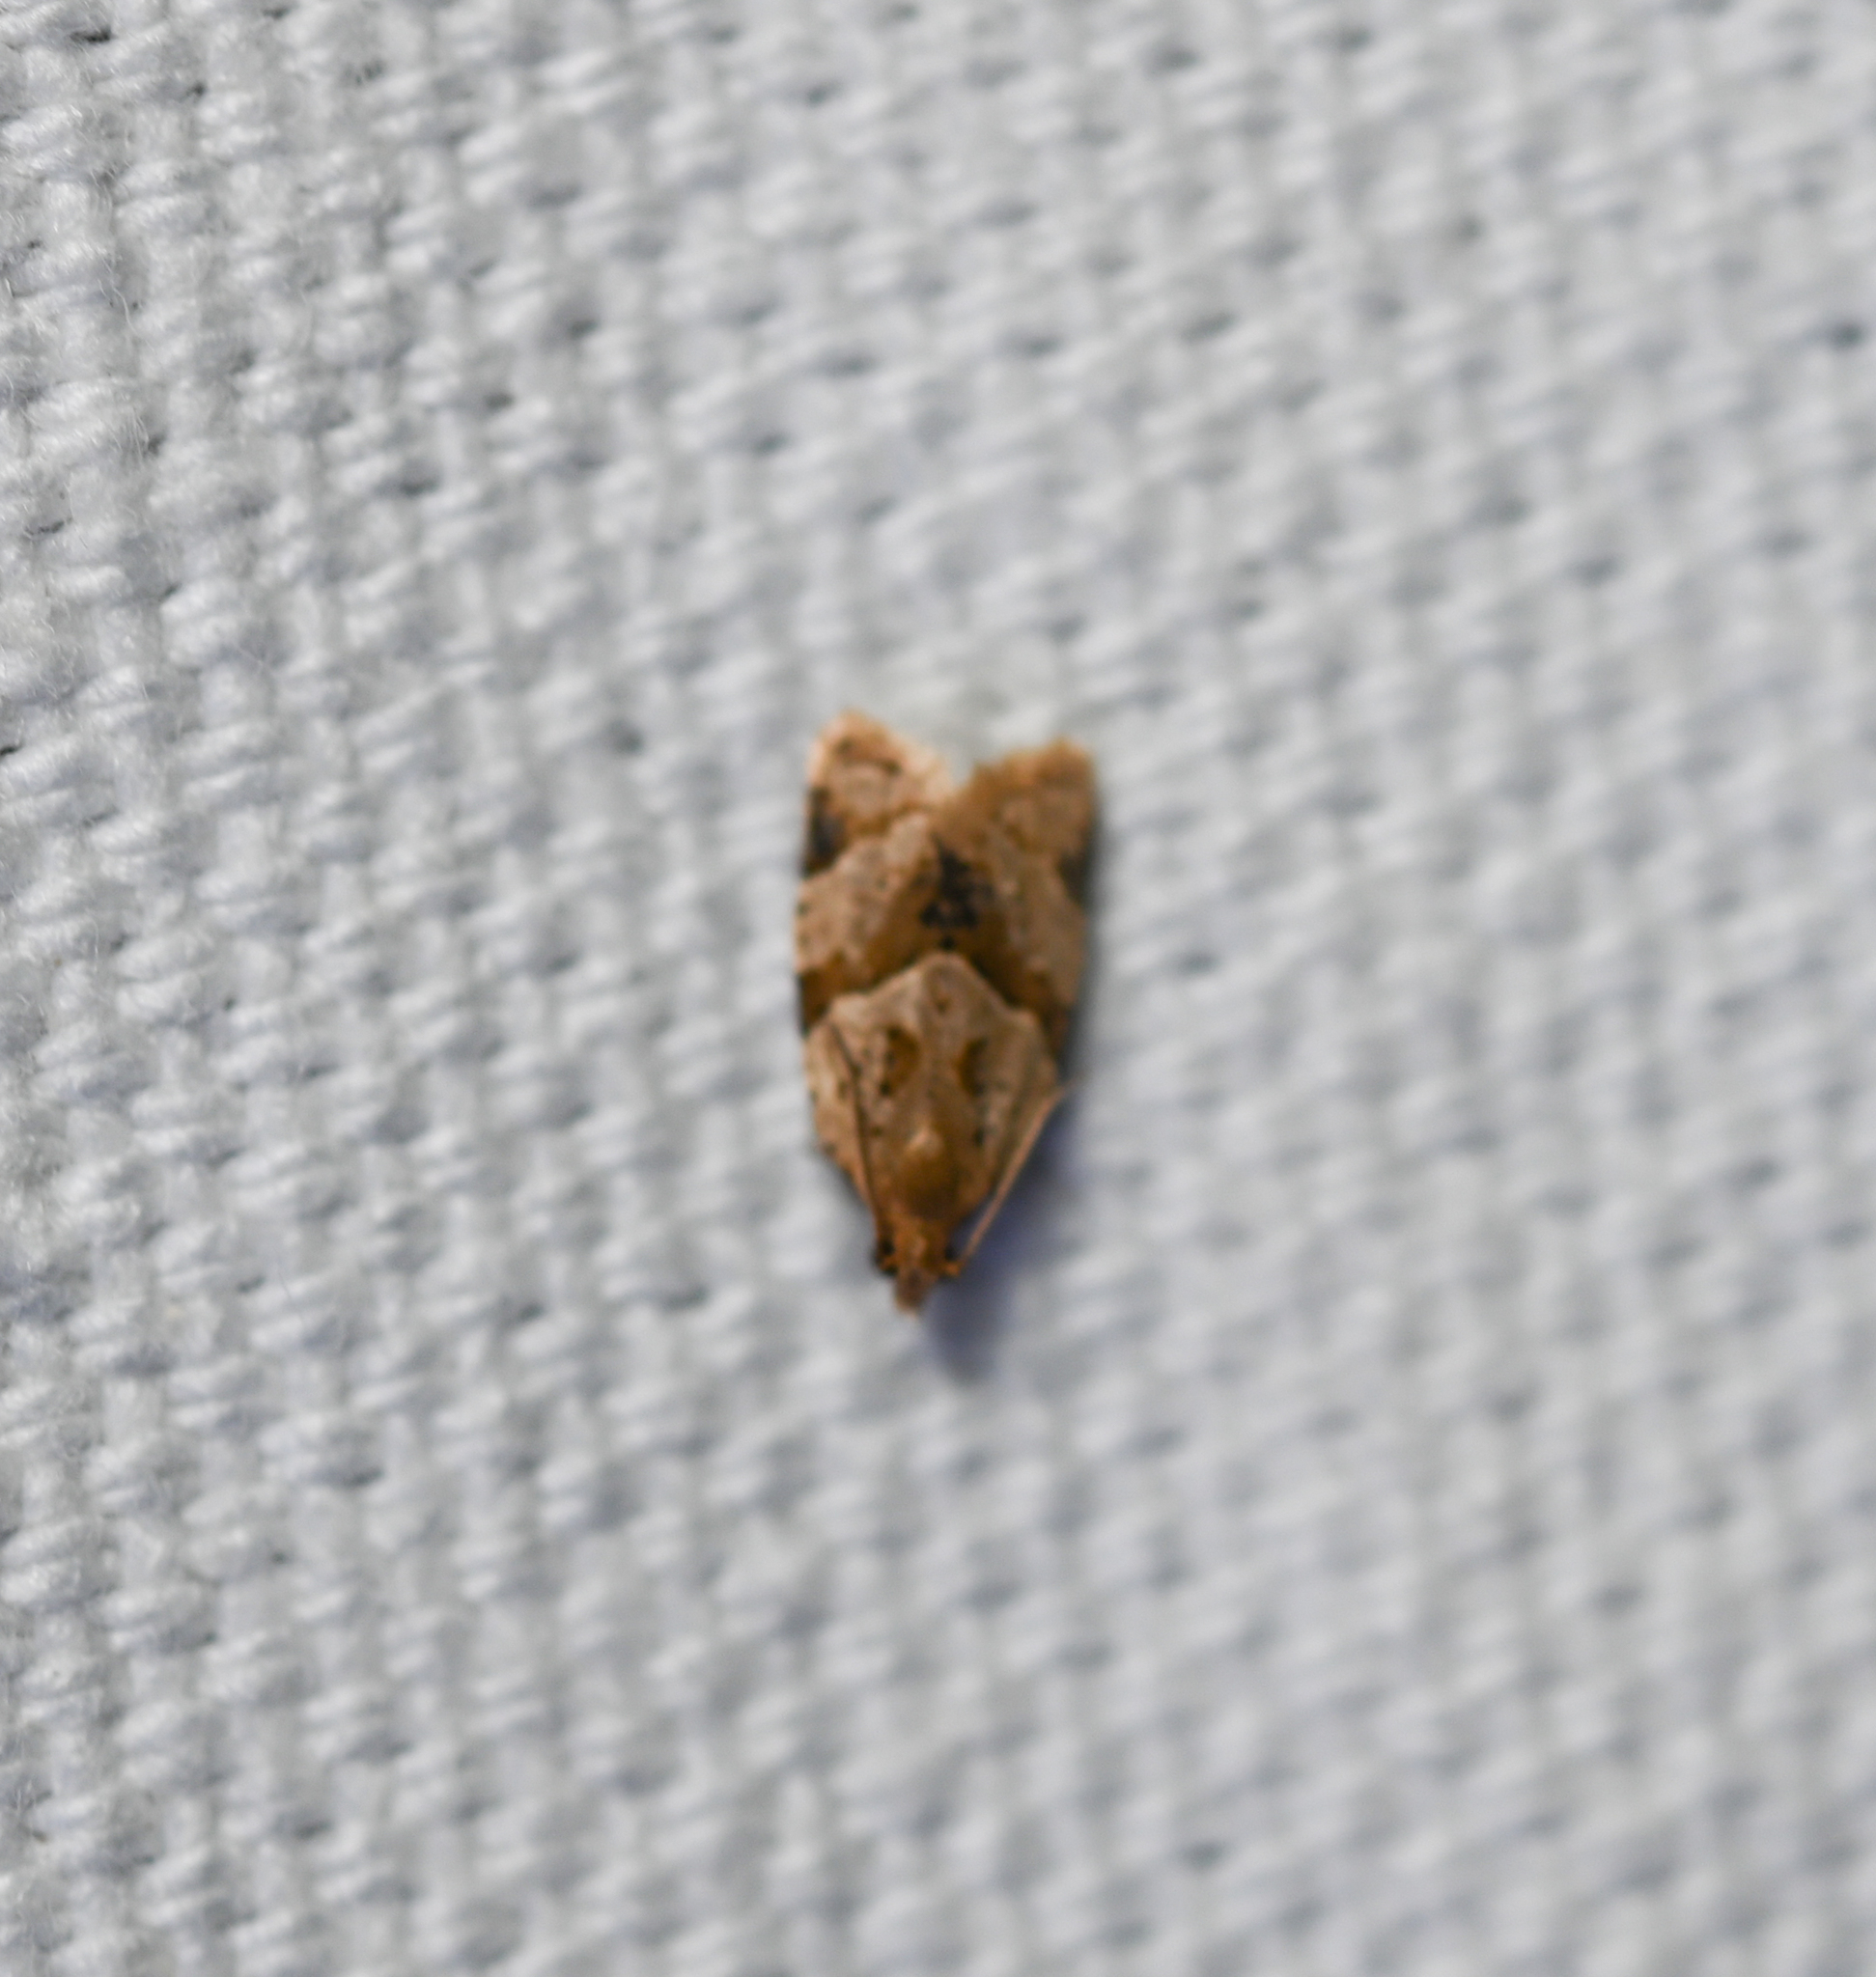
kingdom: Animalia
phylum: Arthropoda
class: Insecta
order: Lepidoptera
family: Tortricidae
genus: Clepsis
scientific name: Clepsis peritana
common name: Garden tortrix
